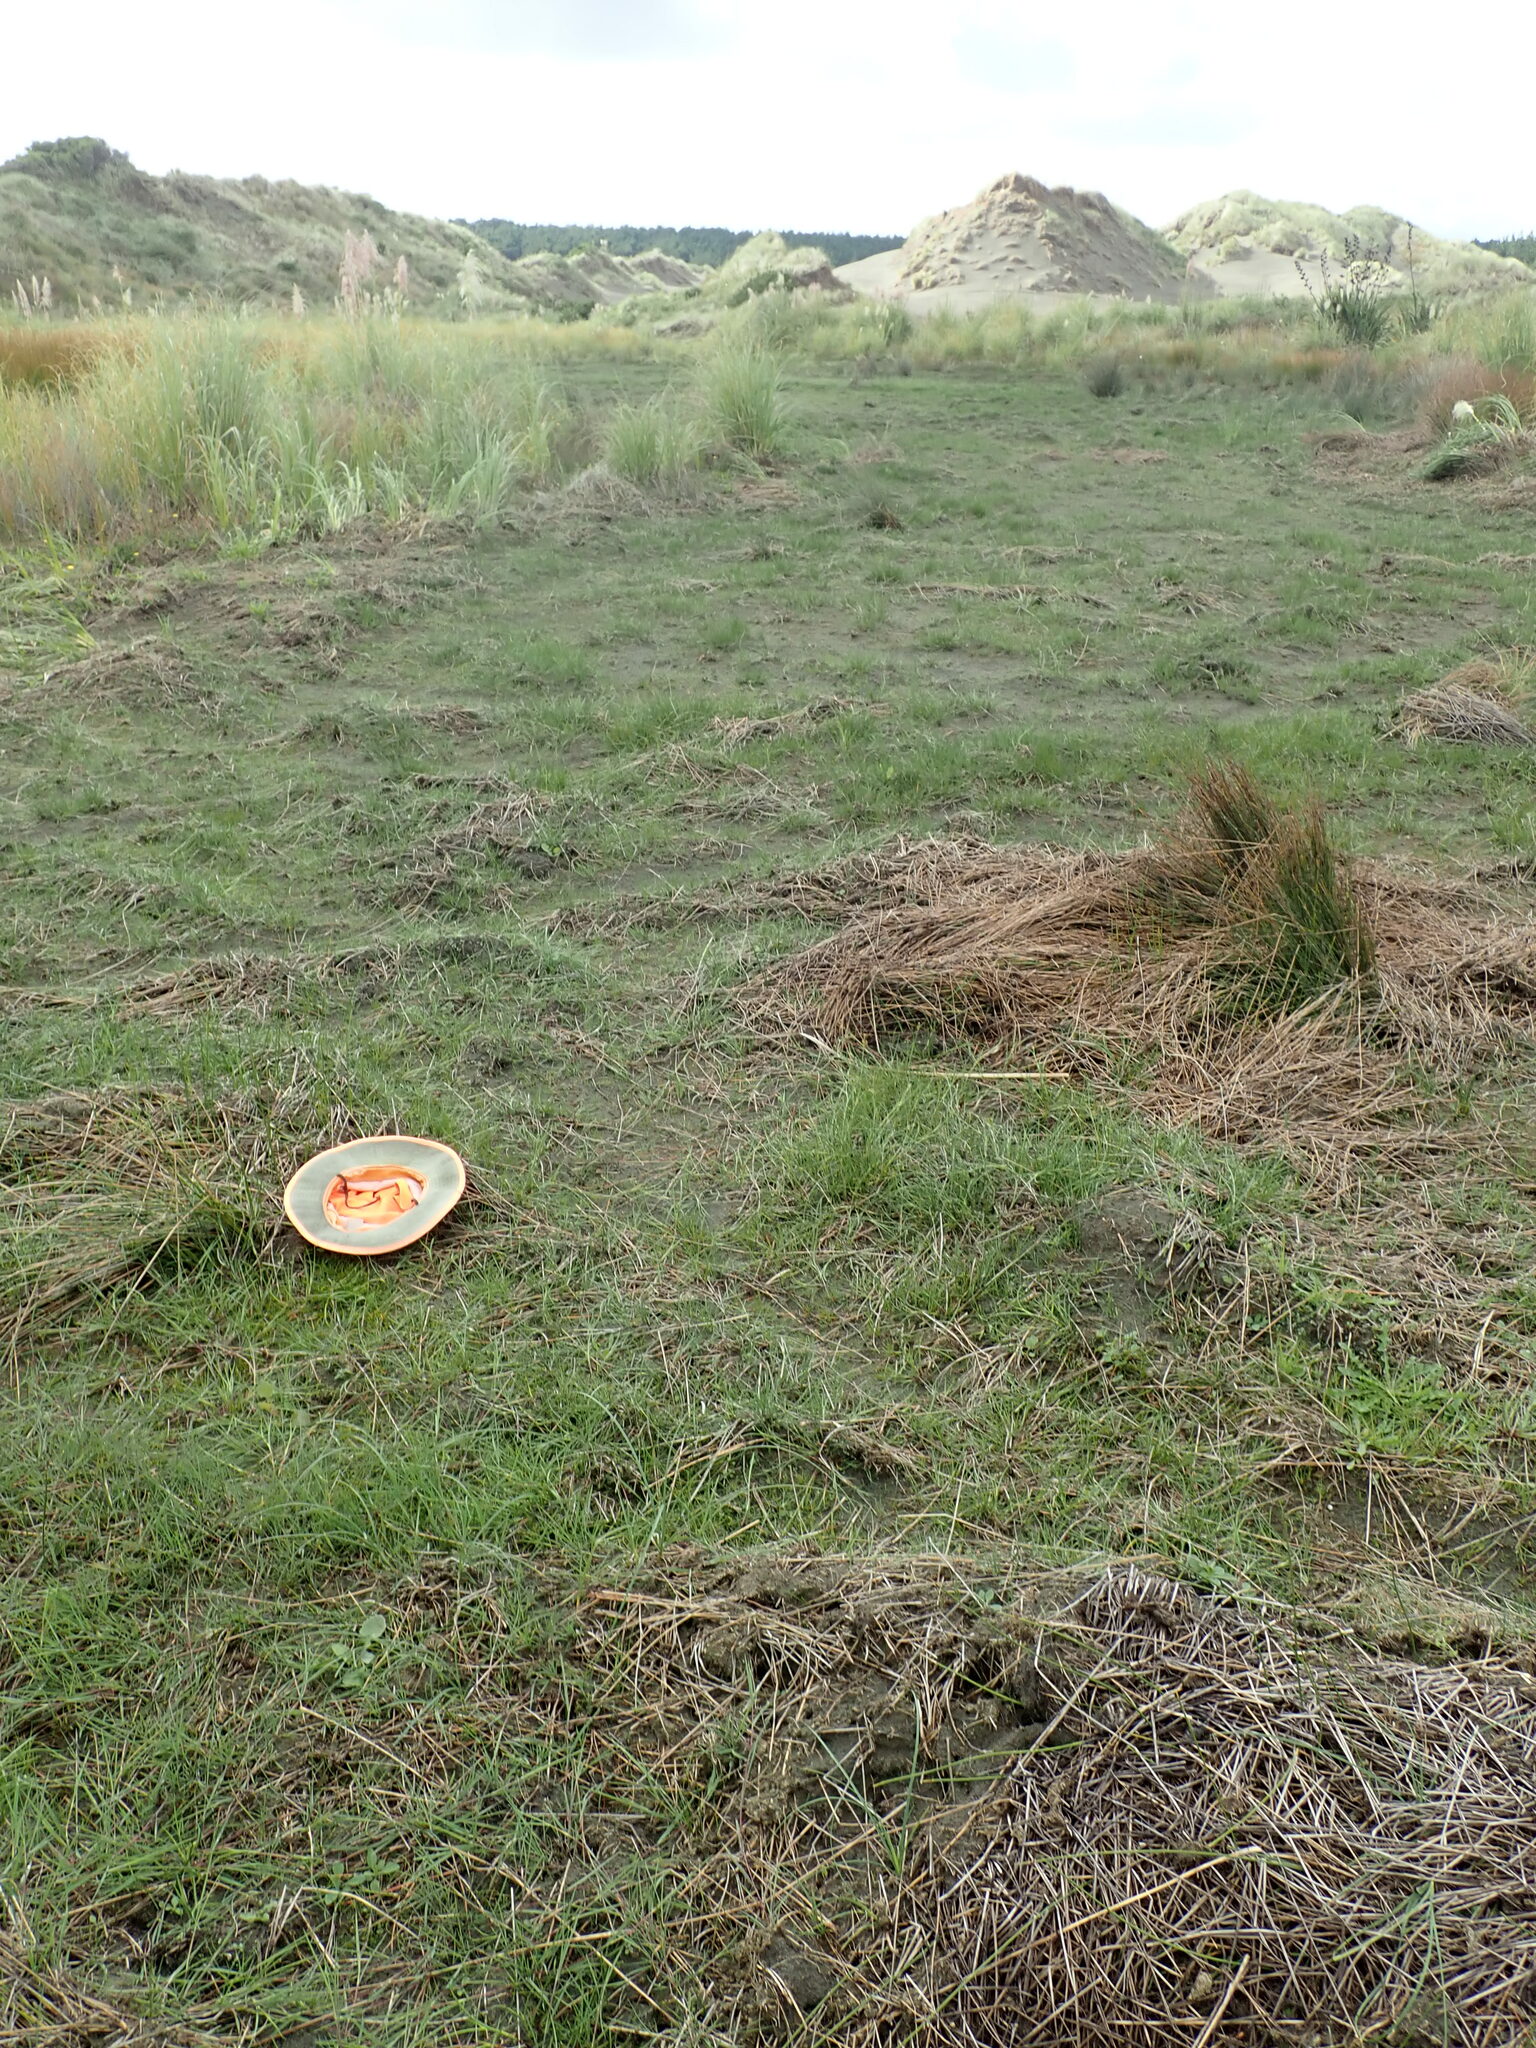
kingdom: Plantae
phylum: Tracheophyta
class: Magnoliopsida
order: Apiales
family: Apiaceae
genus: Lilaeopsis
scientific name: Lilaeopsis novae-zelandiae
